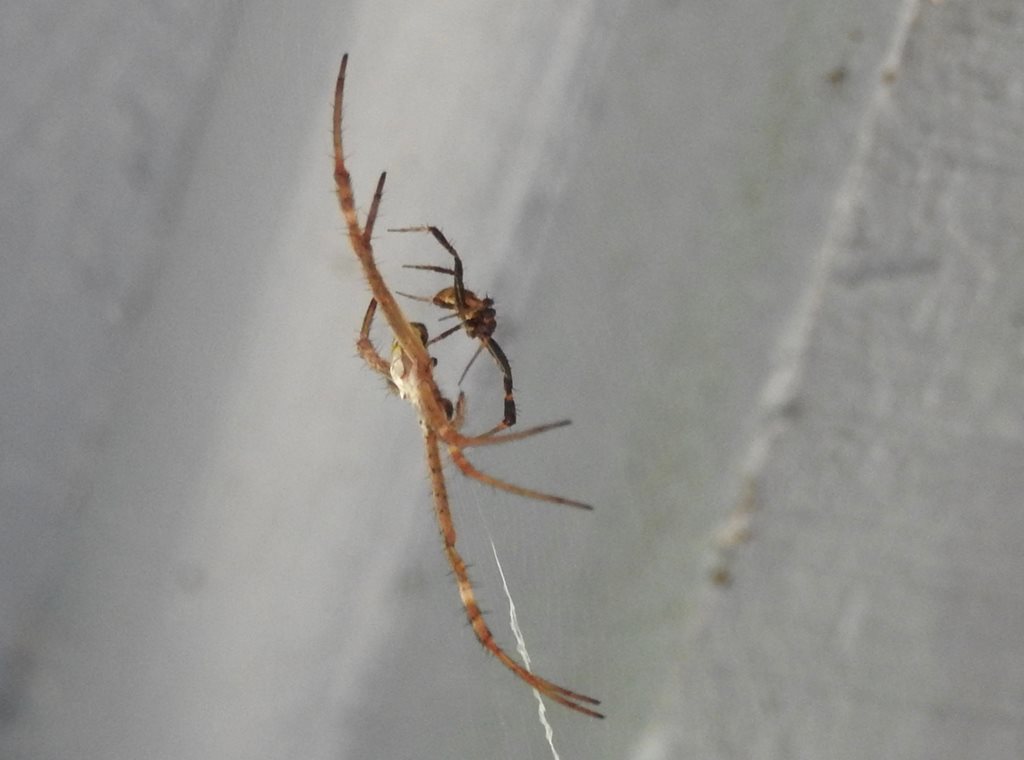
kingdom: Animalia
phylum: Arthropoda
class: Arachnida
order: Araneae
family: Araneidae
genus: Argiope
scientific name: Argiope keyserlingi
